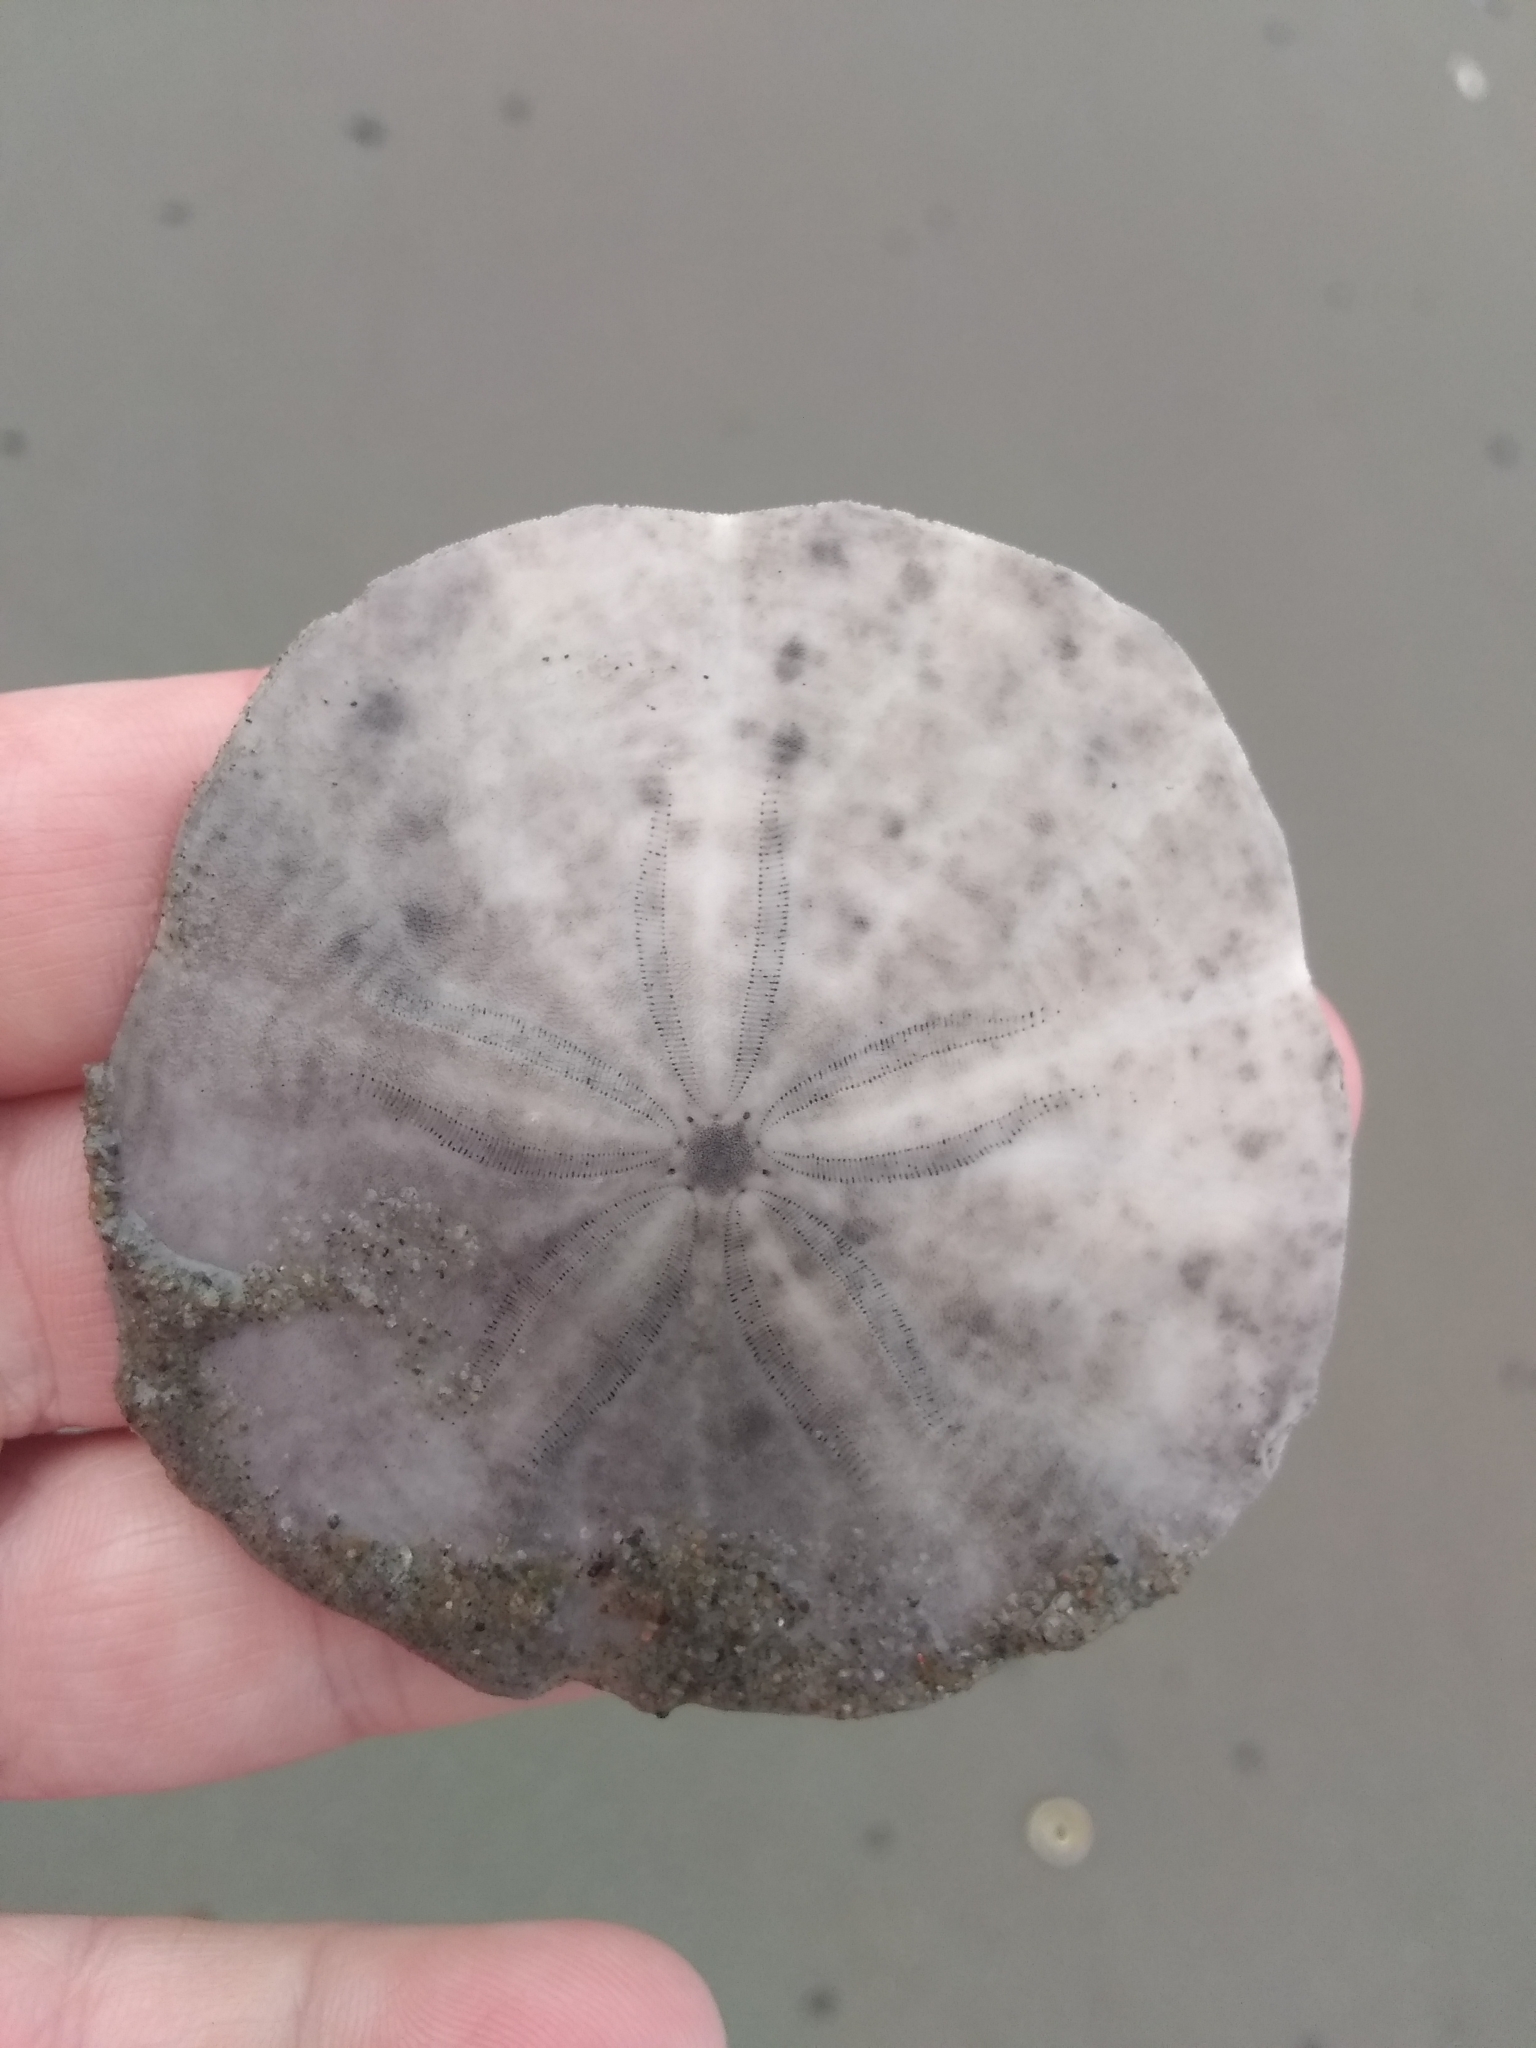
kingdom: Animalia
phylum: Echinodermata
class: Echinoidea
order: Echinolampadacea
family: Echinarachniidae
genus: Echinarachnius
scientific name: Echinarachnius parma
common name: Common sand dollar
